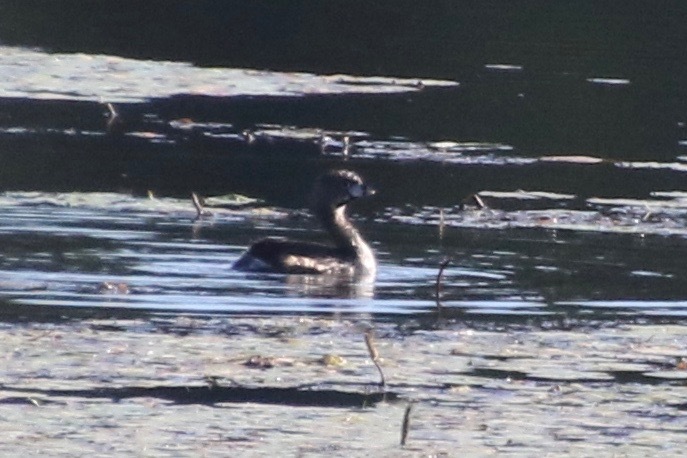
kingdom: Animalia
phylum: Chordata
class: Aves
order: Podicipediformes
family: Podicipedidae
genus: Podilymbus
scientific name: Podilymbus podiceps
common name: Pied-billed grebe
